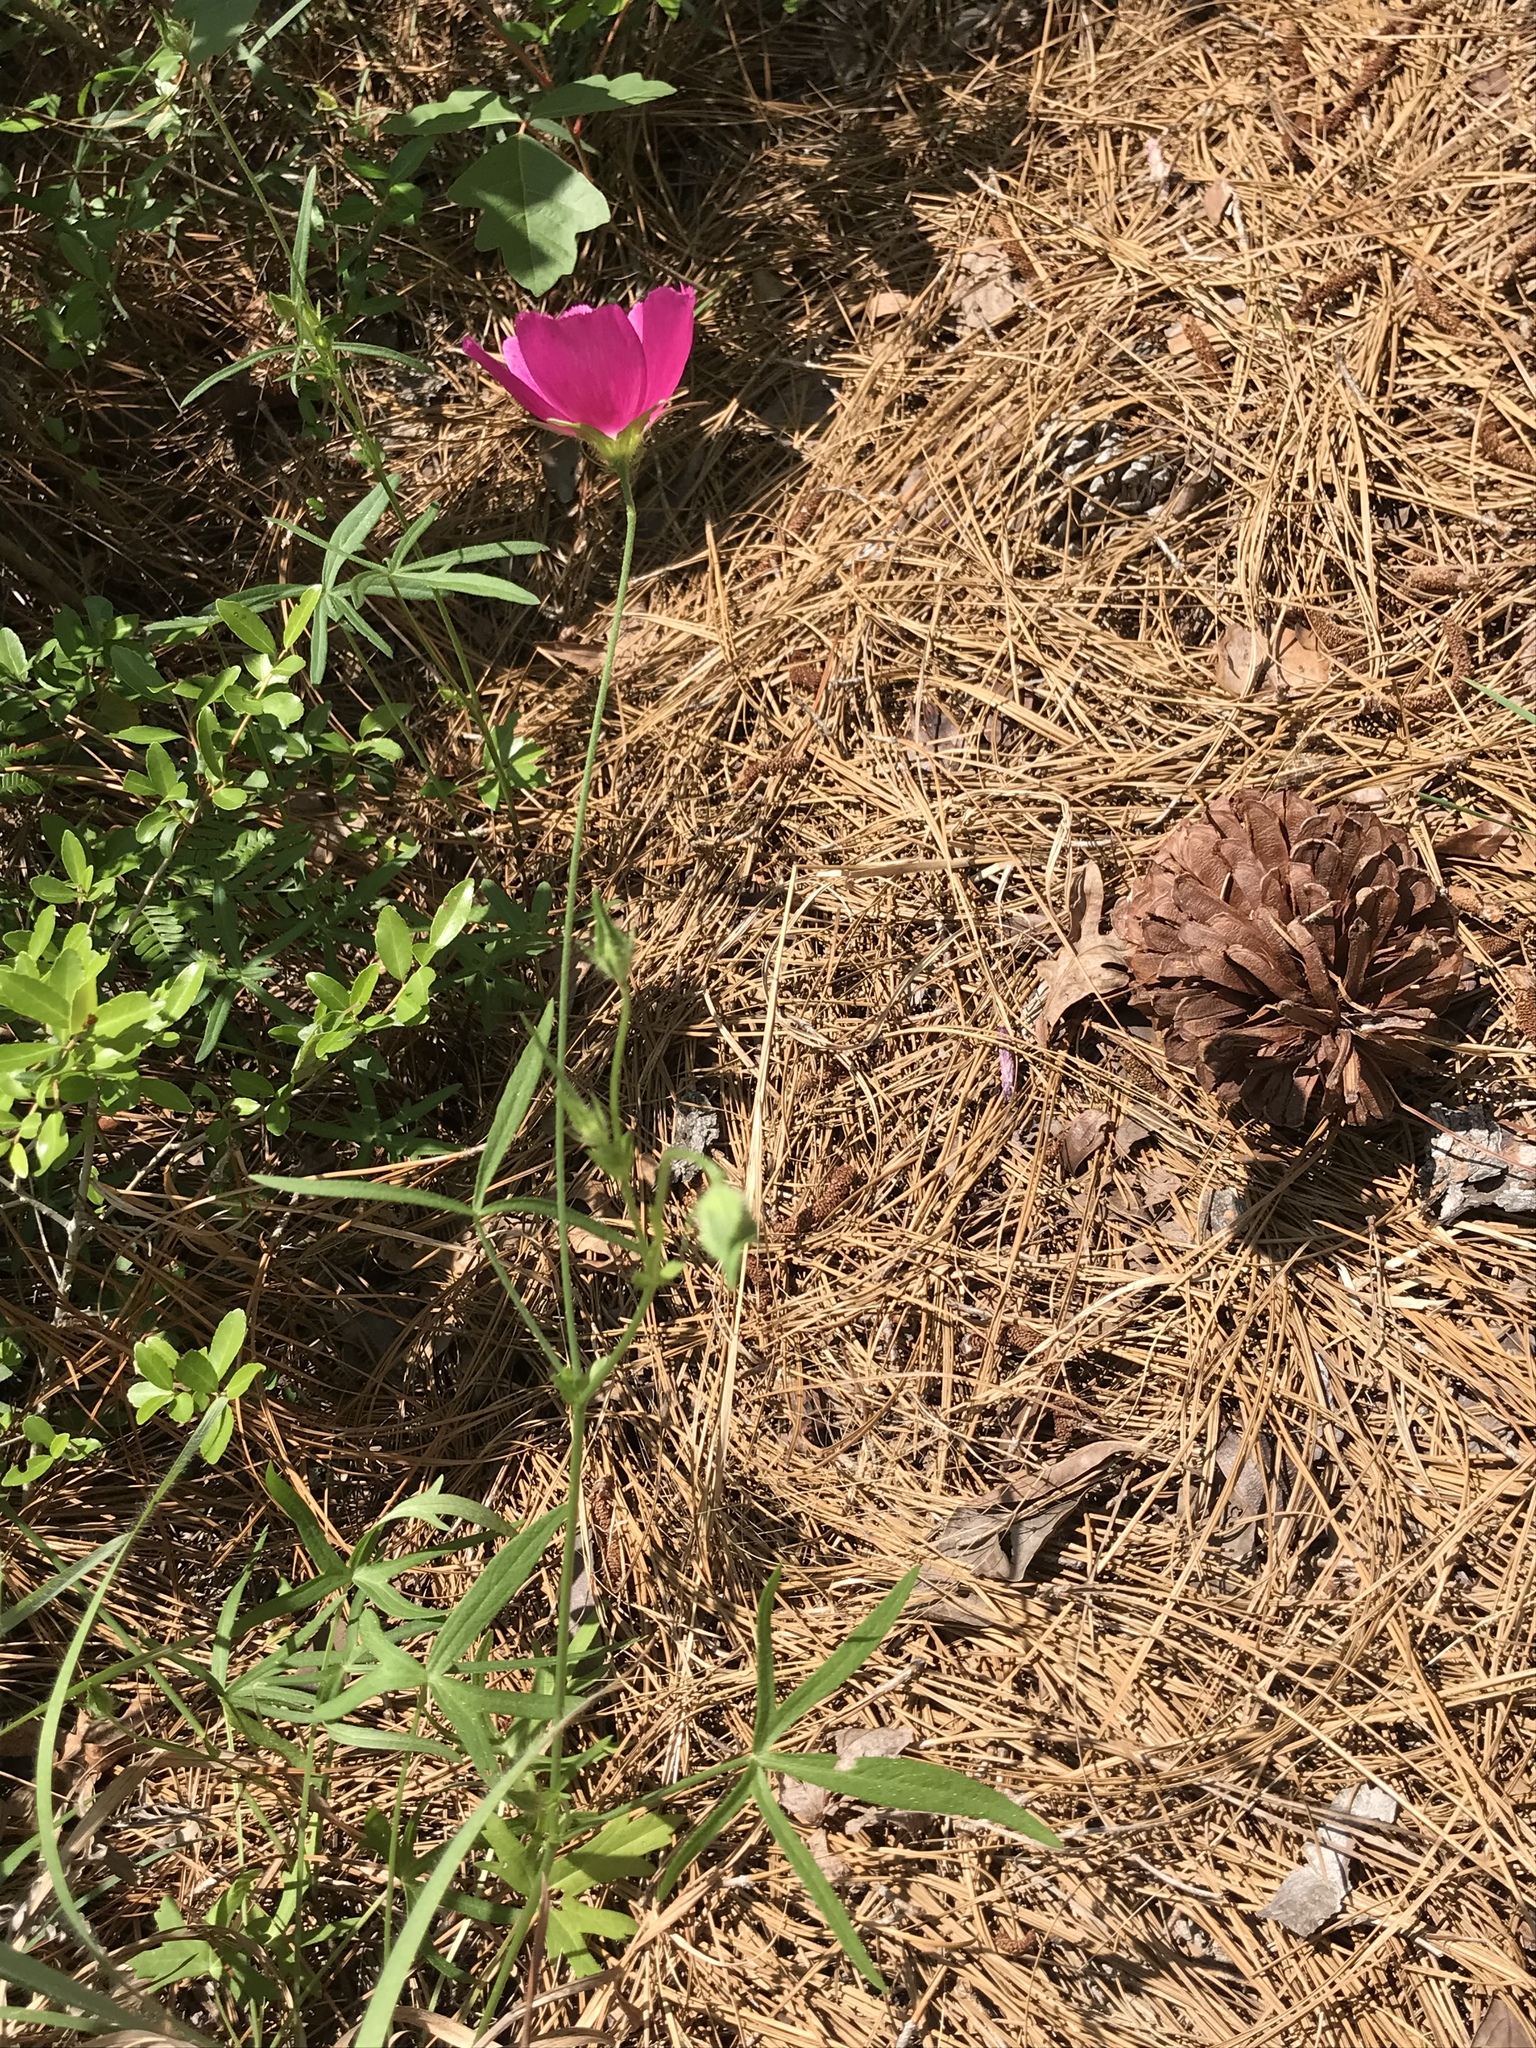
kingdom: Plantae
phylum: Tracheophyta
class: Magnoliopsida
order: Malvales
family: Malvaceae
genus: Callirhoe
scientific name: Callirhoe papaver
